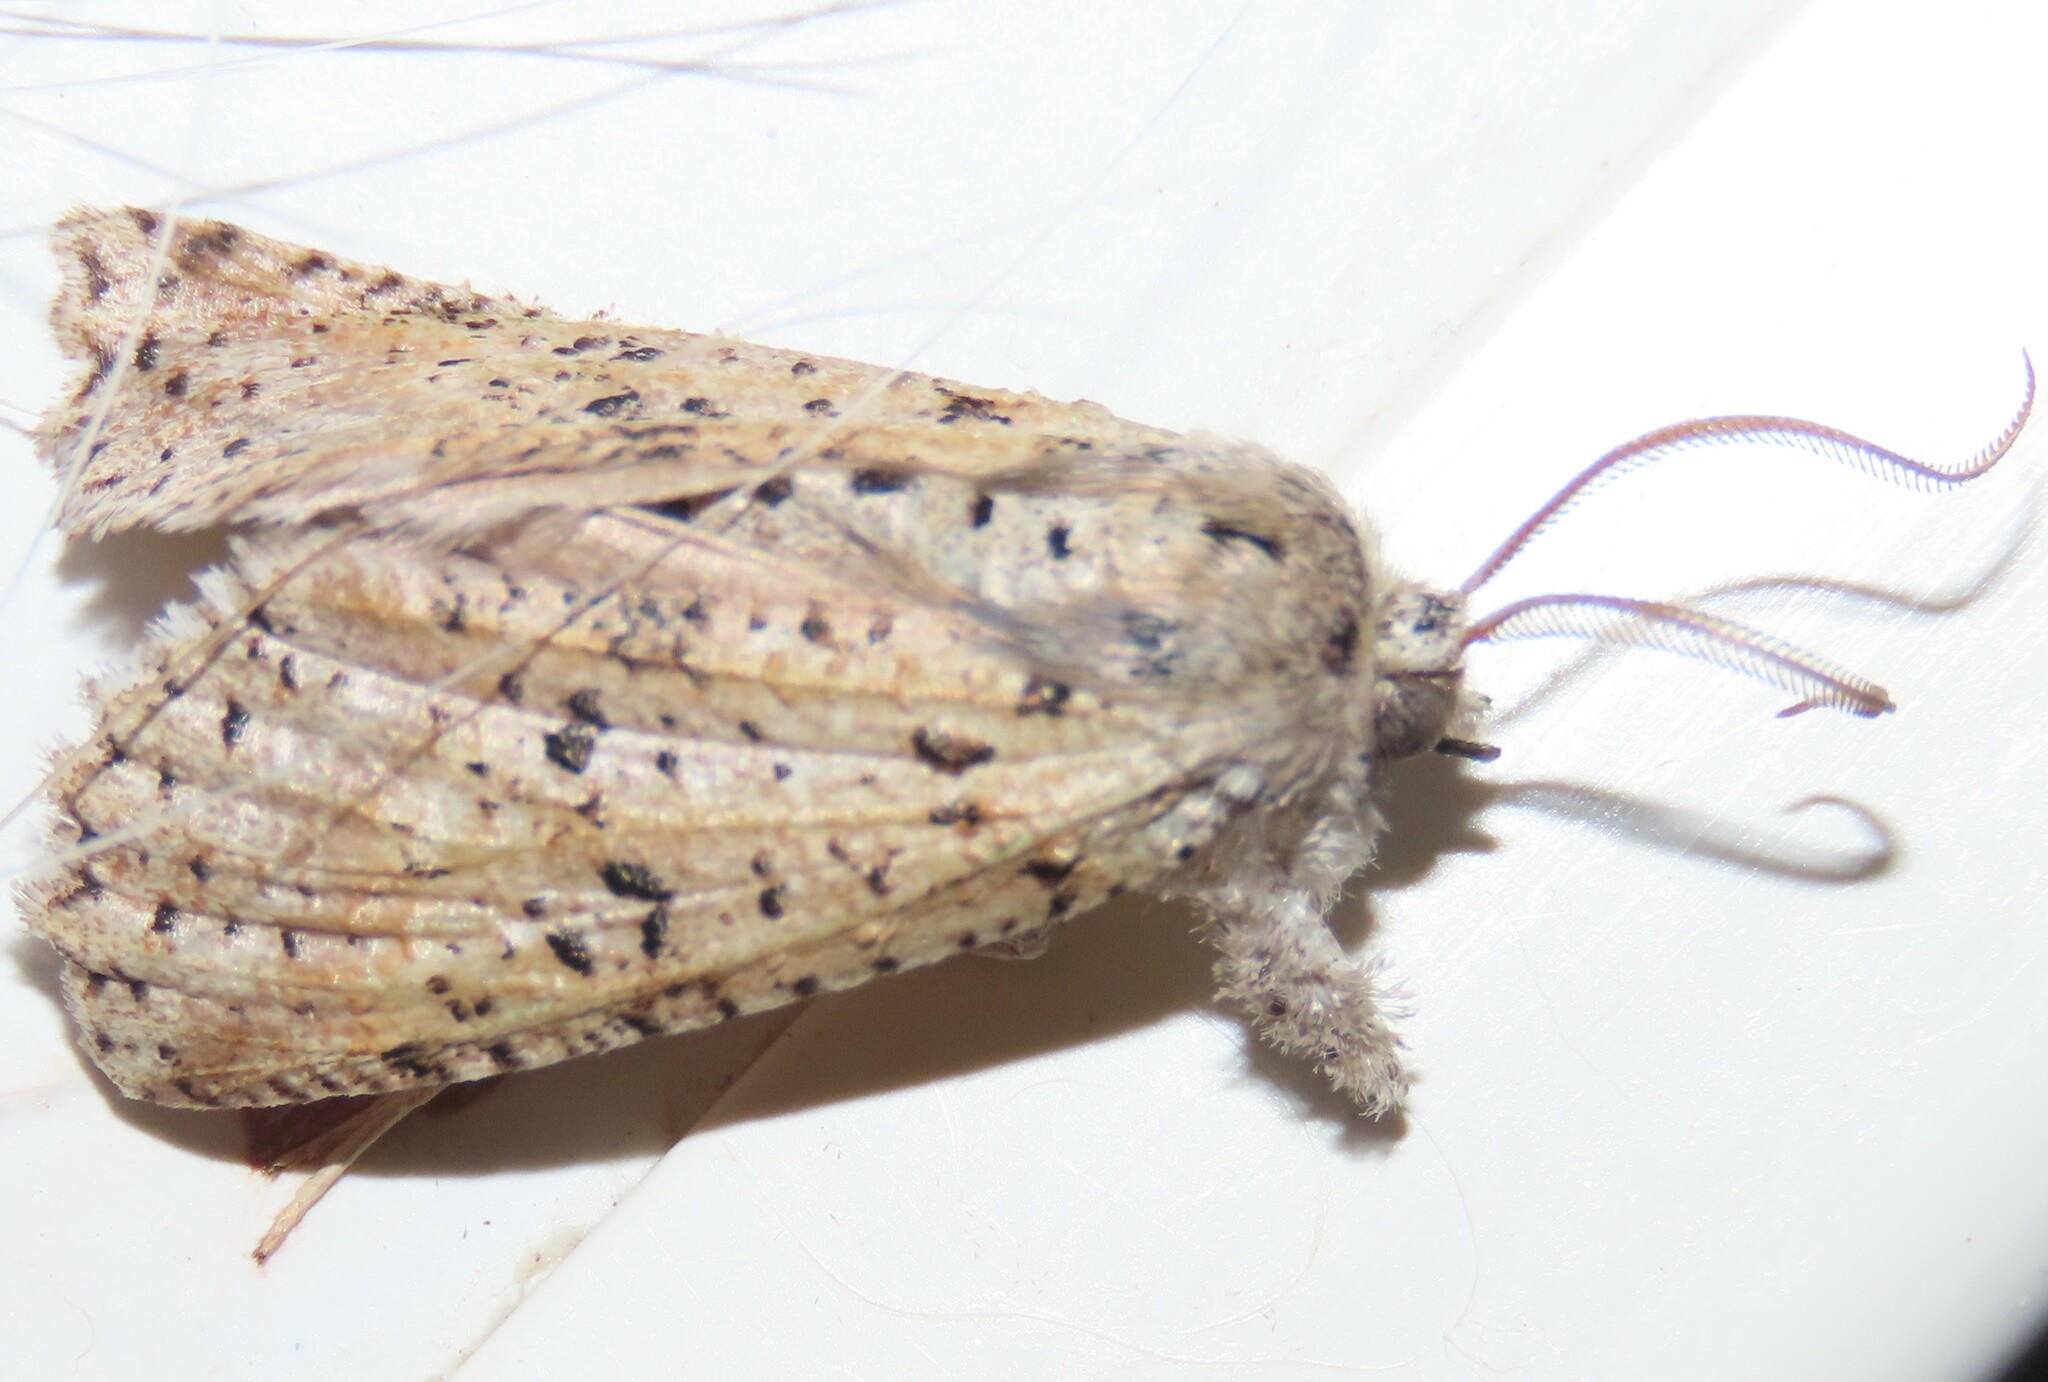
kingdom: Animalia
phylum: Arthropoda
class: Insecta
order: Lepidoptera
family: Geometridae
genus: Declana
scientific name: Declana floccosa
